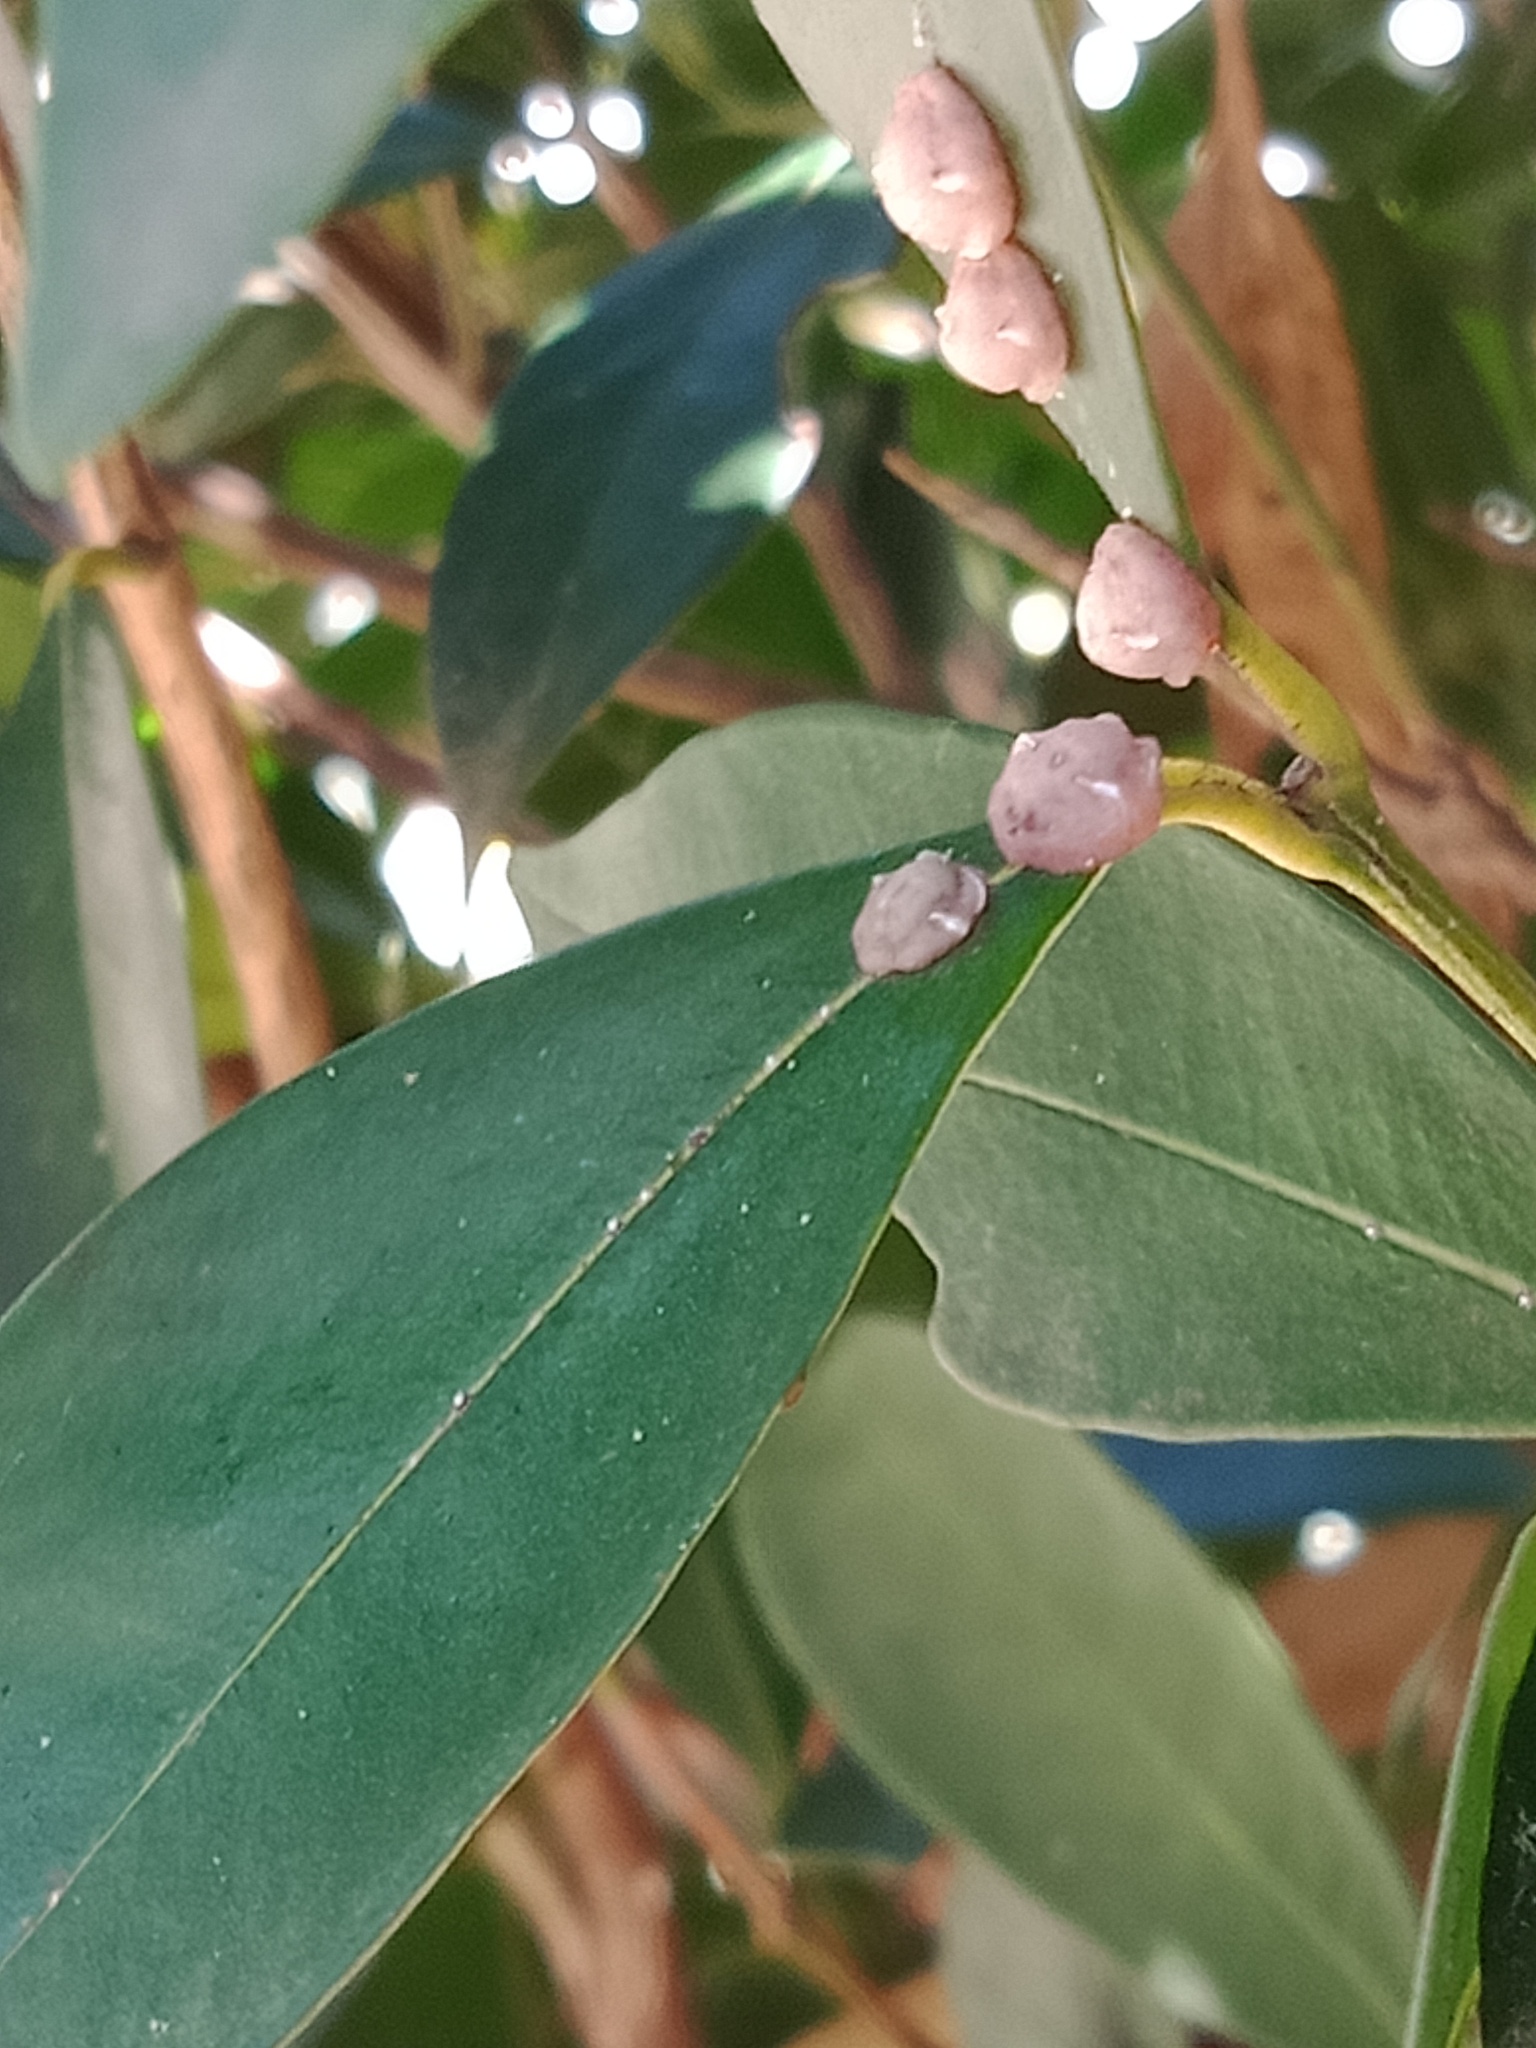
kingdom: Animalia
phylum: Arthropoda
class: Insecta
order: Hemiptera
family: Coccidae
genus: Ceroplastes
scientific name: Ceroplastes rubens
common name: Pink wax scale
